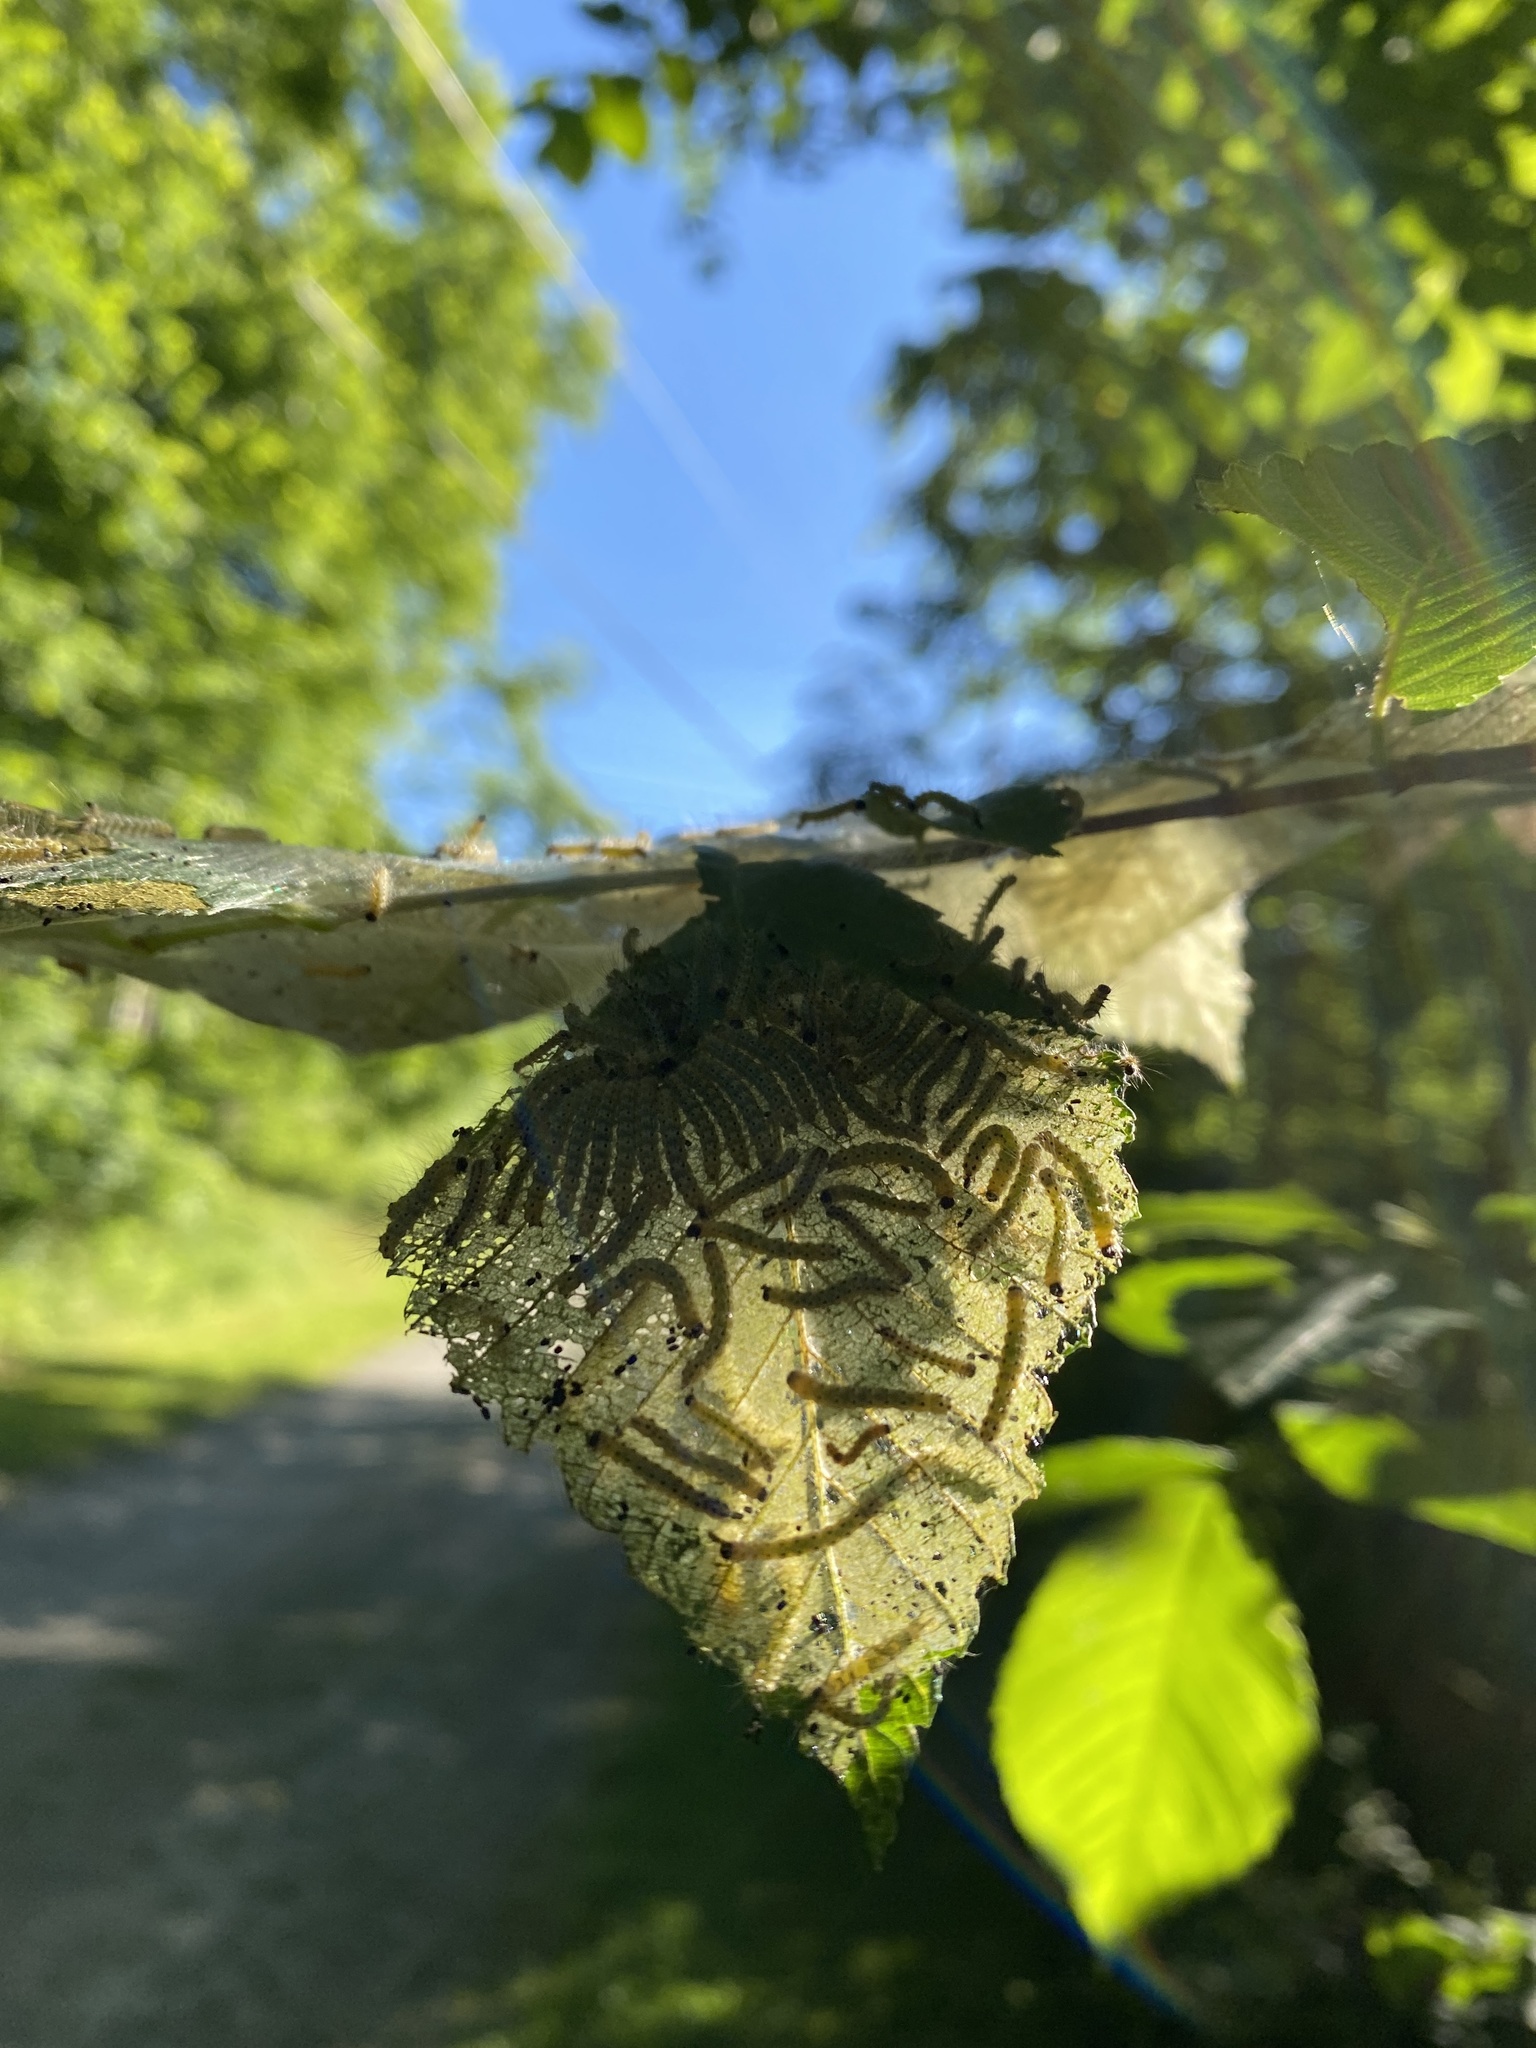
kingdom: Animalia
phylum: Arthropoda
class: Insecta
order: Lepidoptera
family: Erebidae
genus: Hyphantria
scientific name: Hyphantria cunea
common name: American white moth
